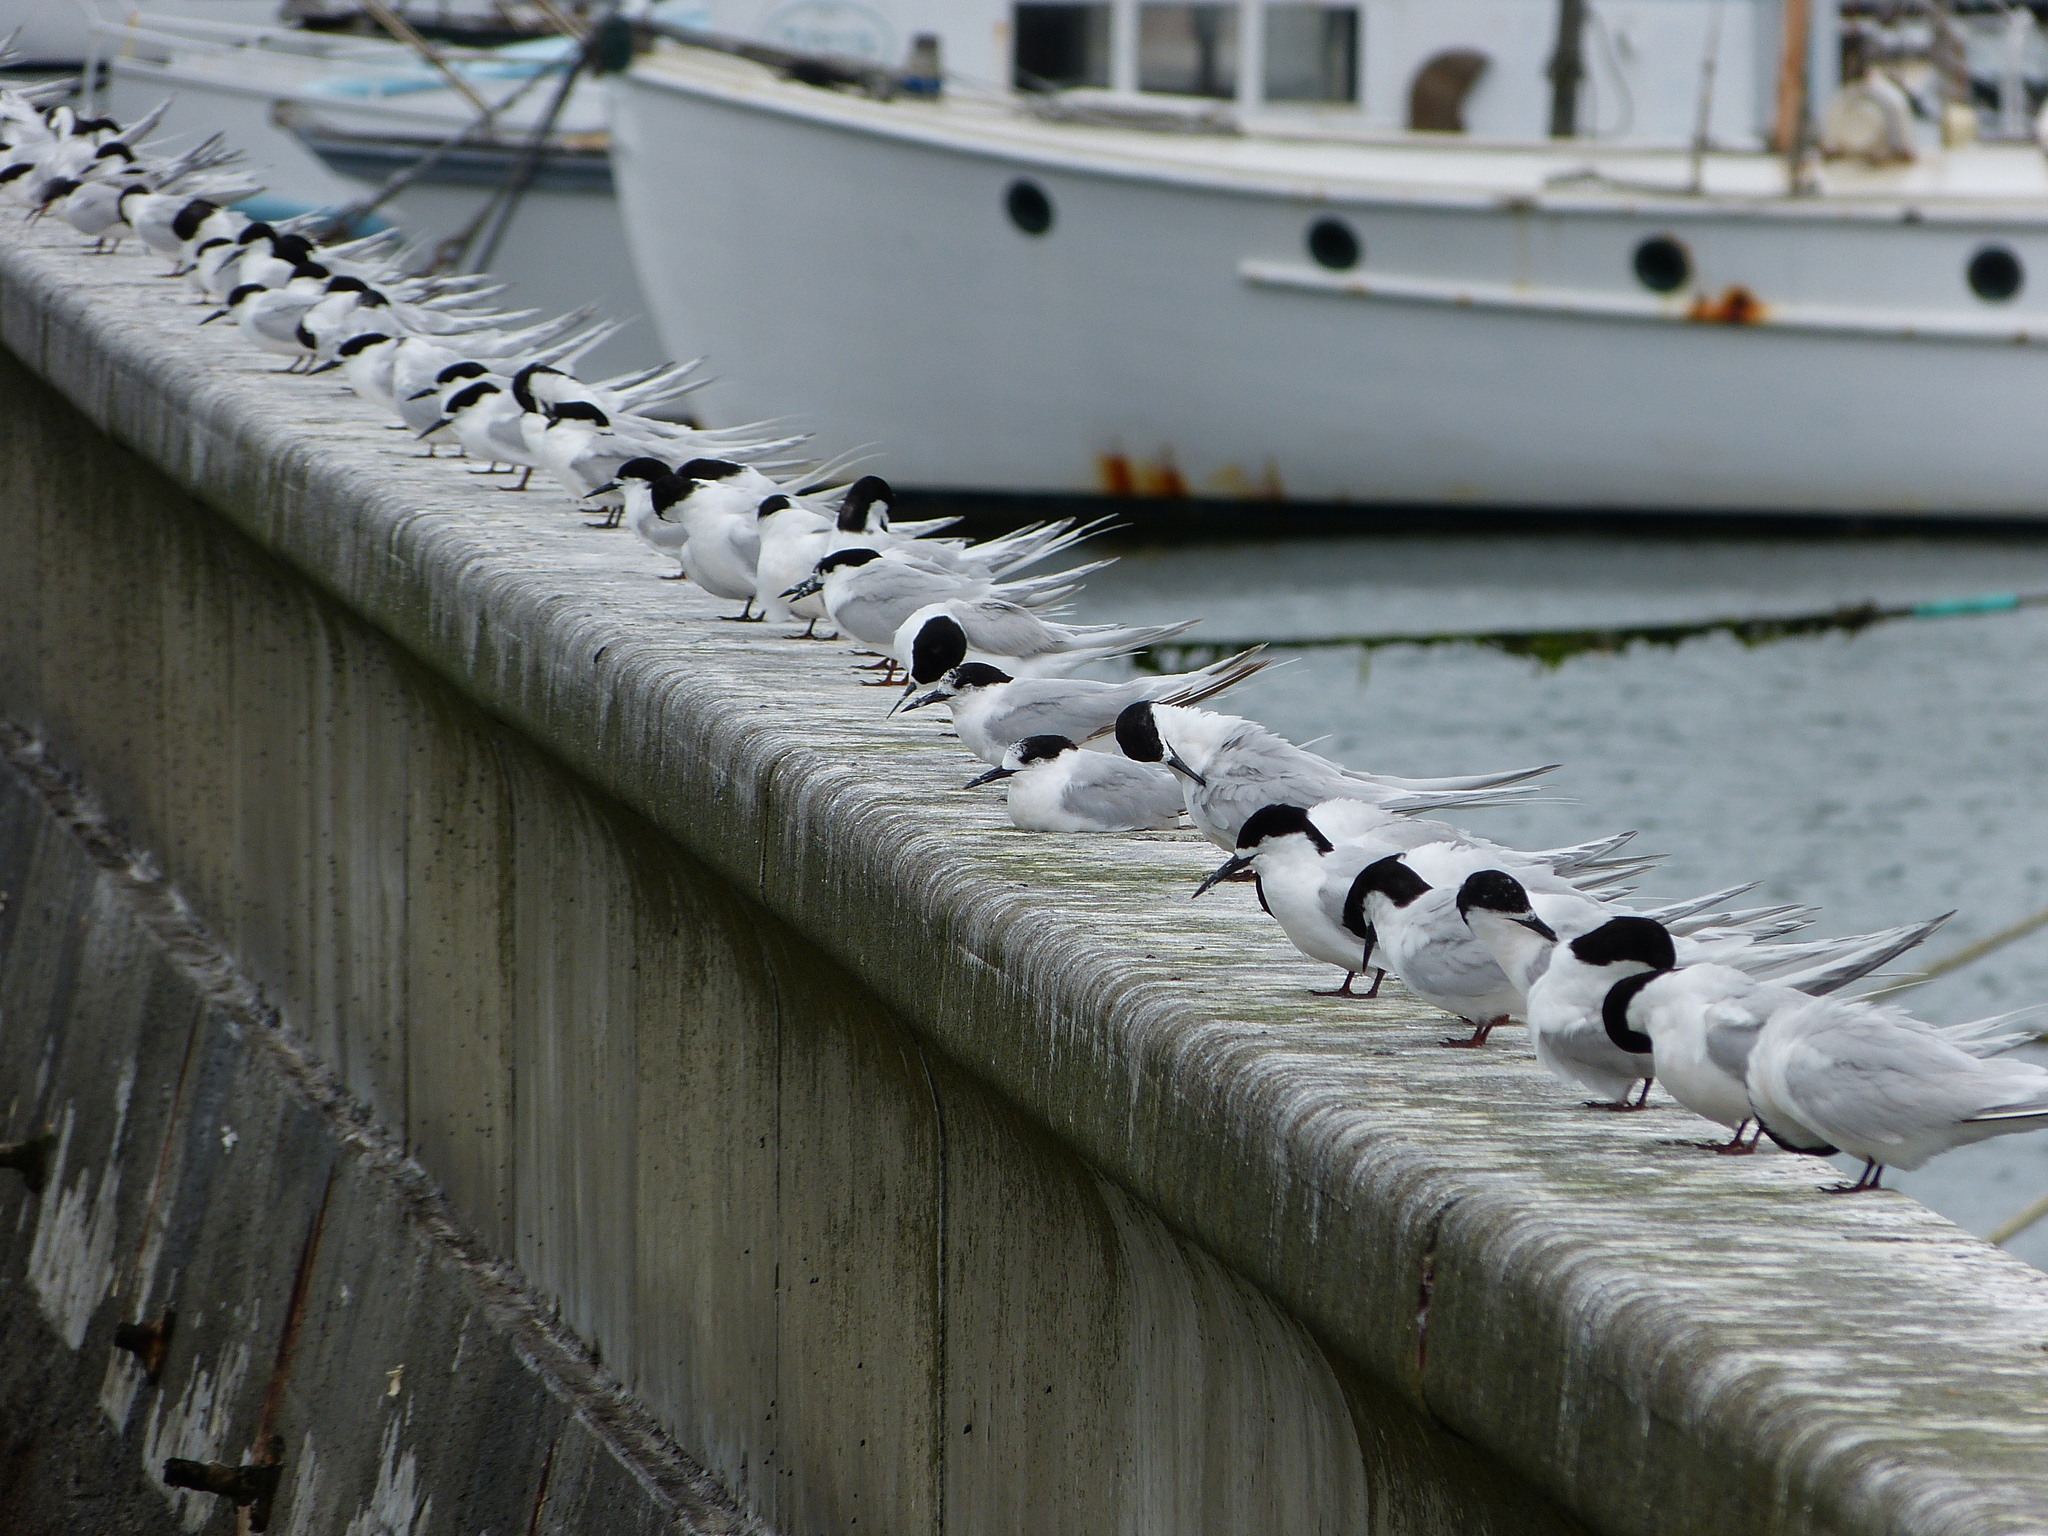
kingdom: Animalia
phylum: Chordata
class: Aves
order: Charadriiformes
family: Laridae
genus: Sterna
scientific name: Sterna striata
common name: White-fronted tern
